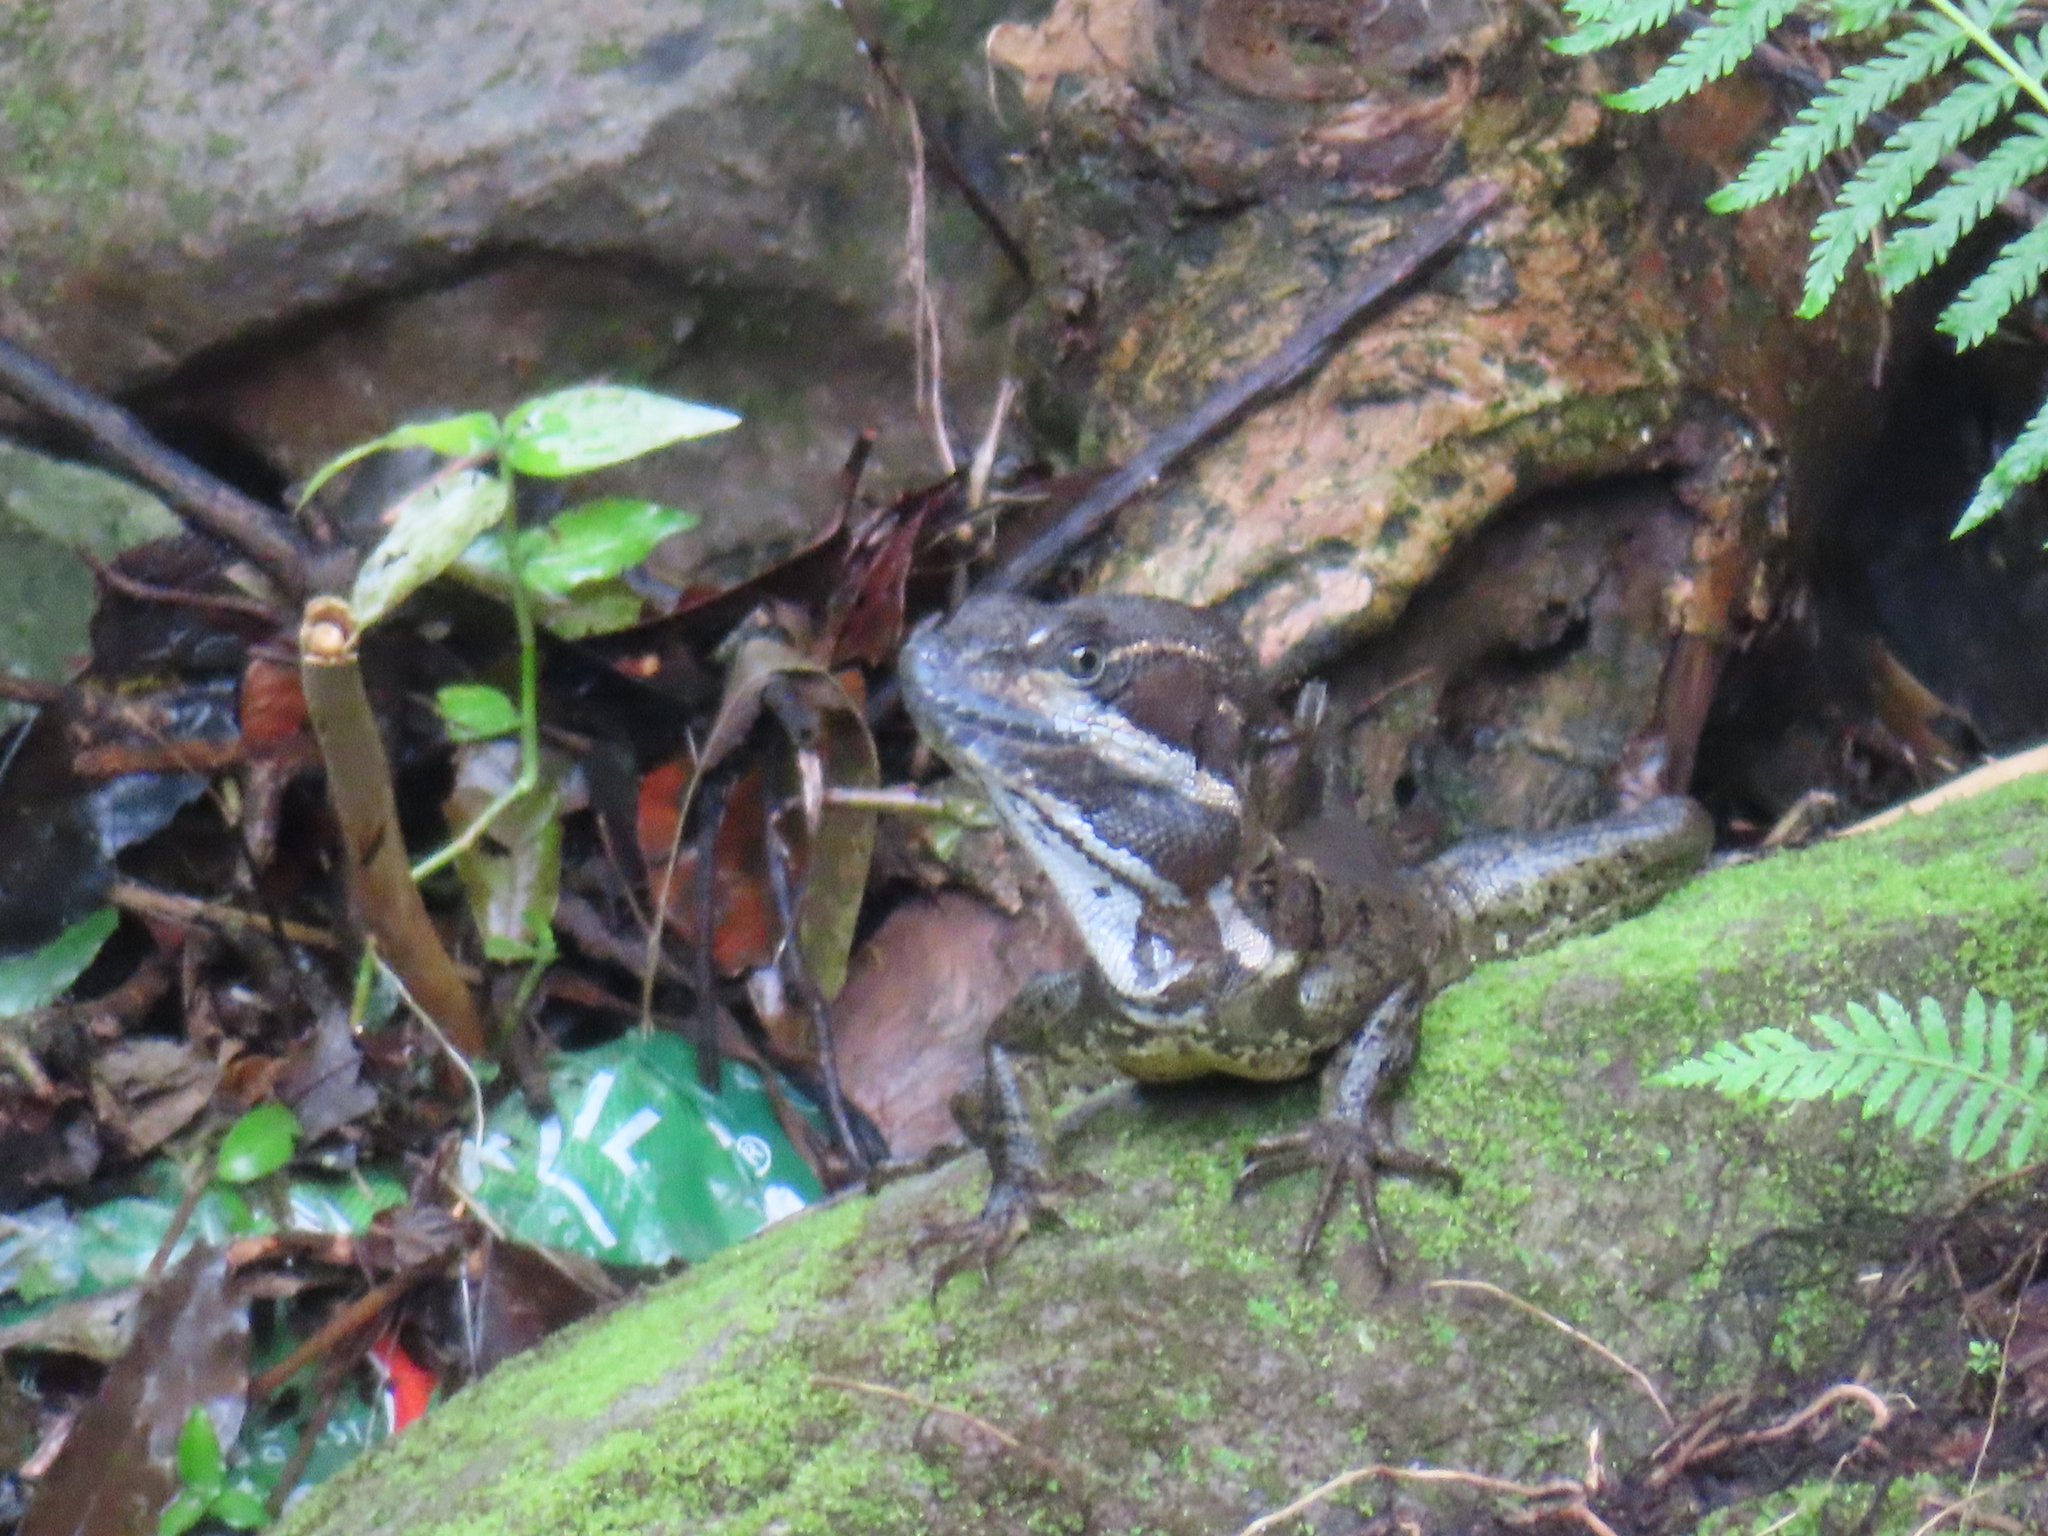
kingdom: Animalia
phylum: Chordata
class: Squamata
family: Corytophanidae
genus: Basiliscus
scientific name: Basiliscus basiliscus
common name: Common basilisk
